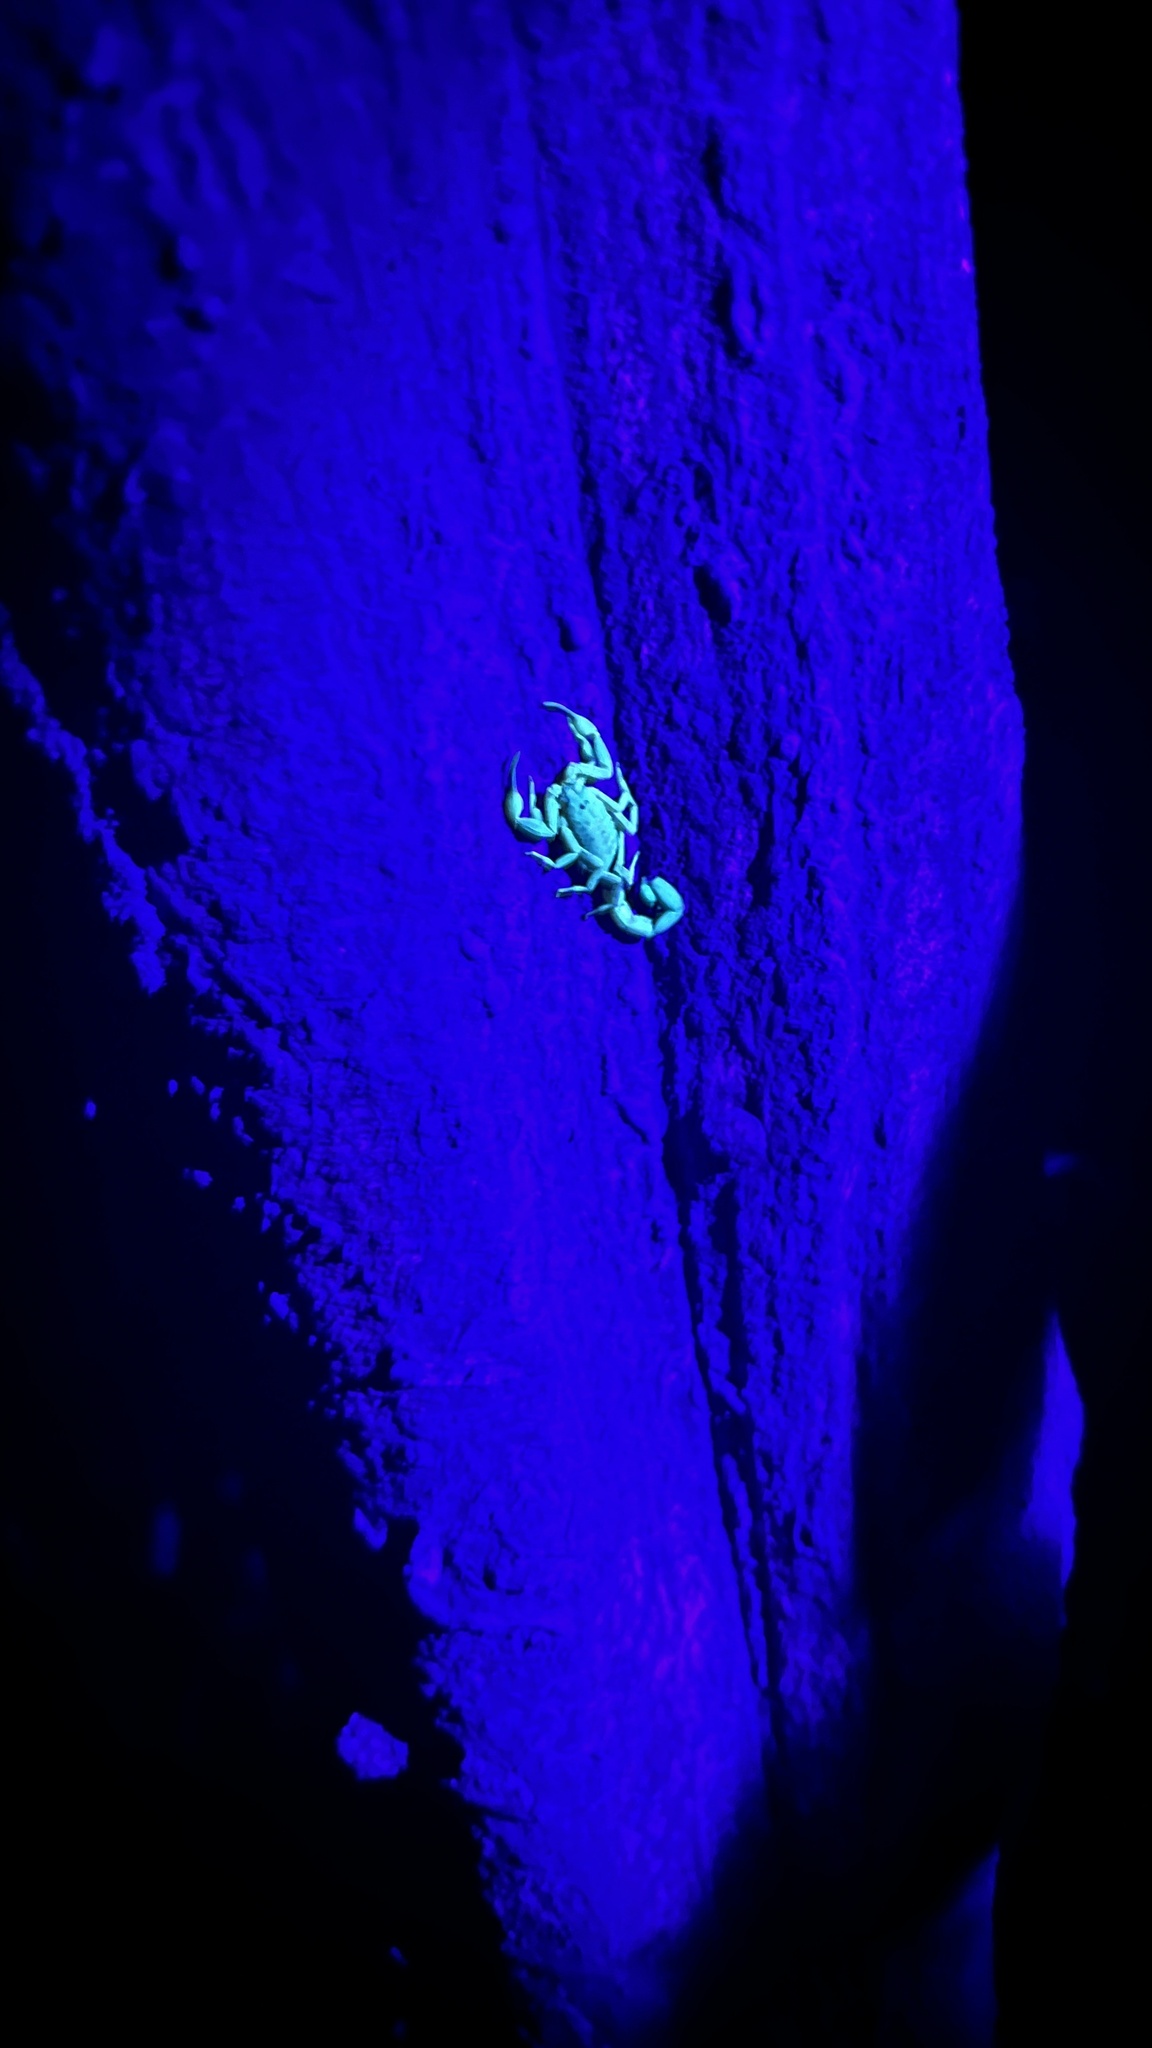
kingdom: Animalia
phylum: Arthropoda
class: Arachnida
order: Scorpiones
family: Buthidae
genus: Lychas
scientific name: Lychas mucronatus
